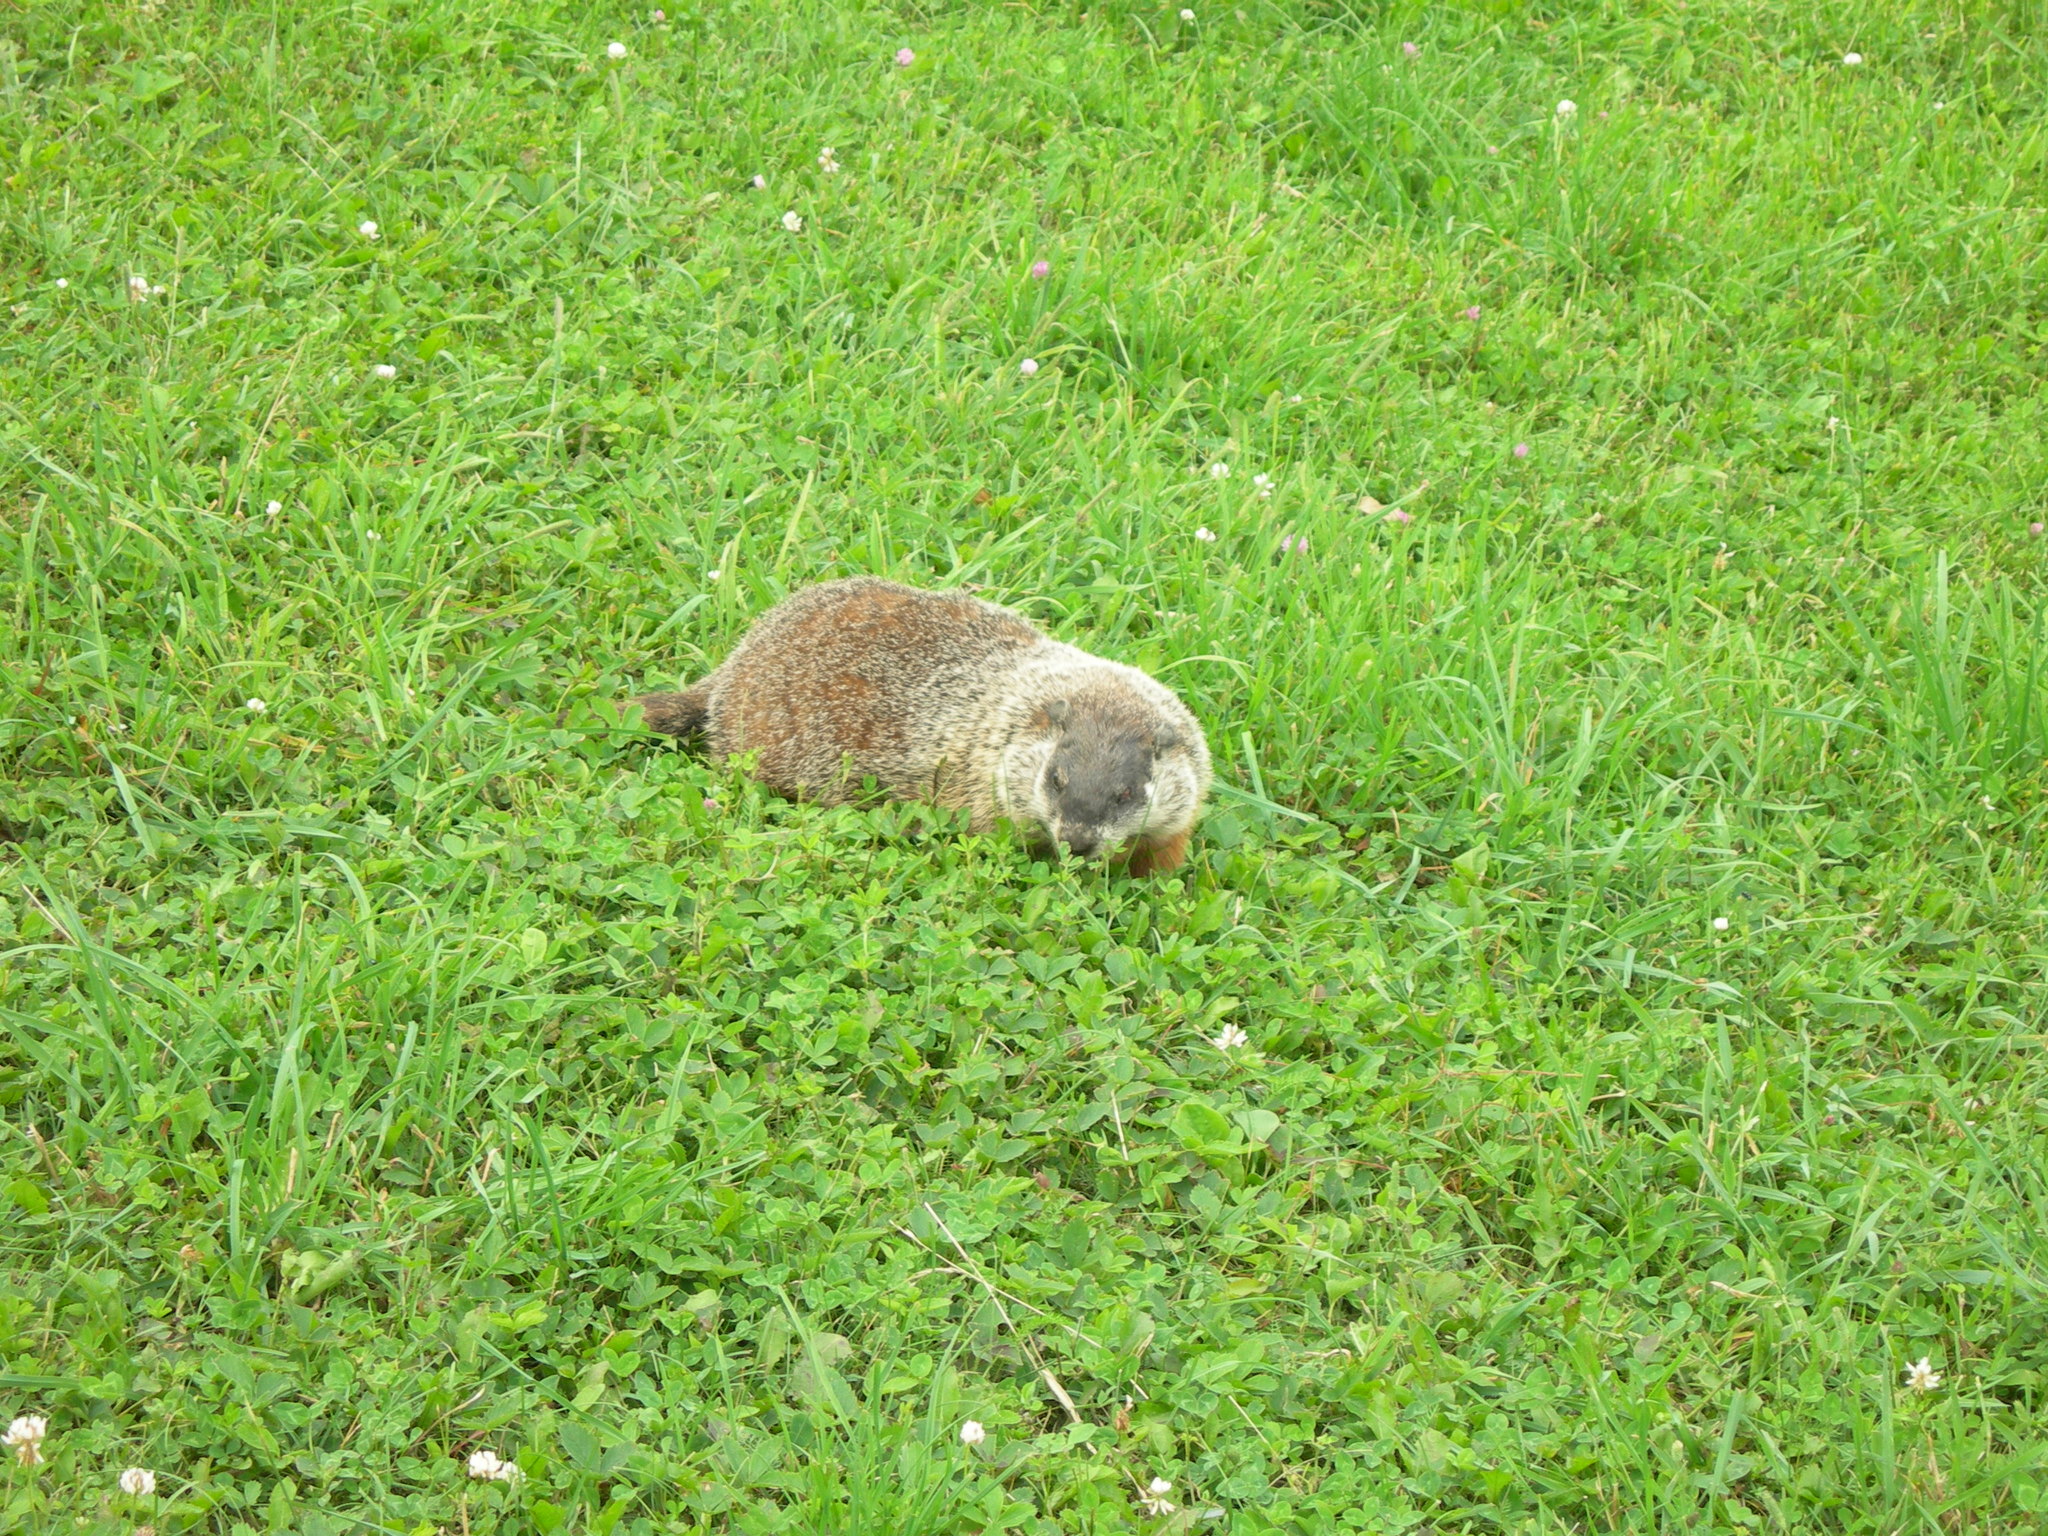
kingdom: Animalia
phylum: Chordata
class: Mammalia
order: Rodentia
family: Sciuridae
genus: Marmota
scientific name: Marmota monax
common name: Groundhog
